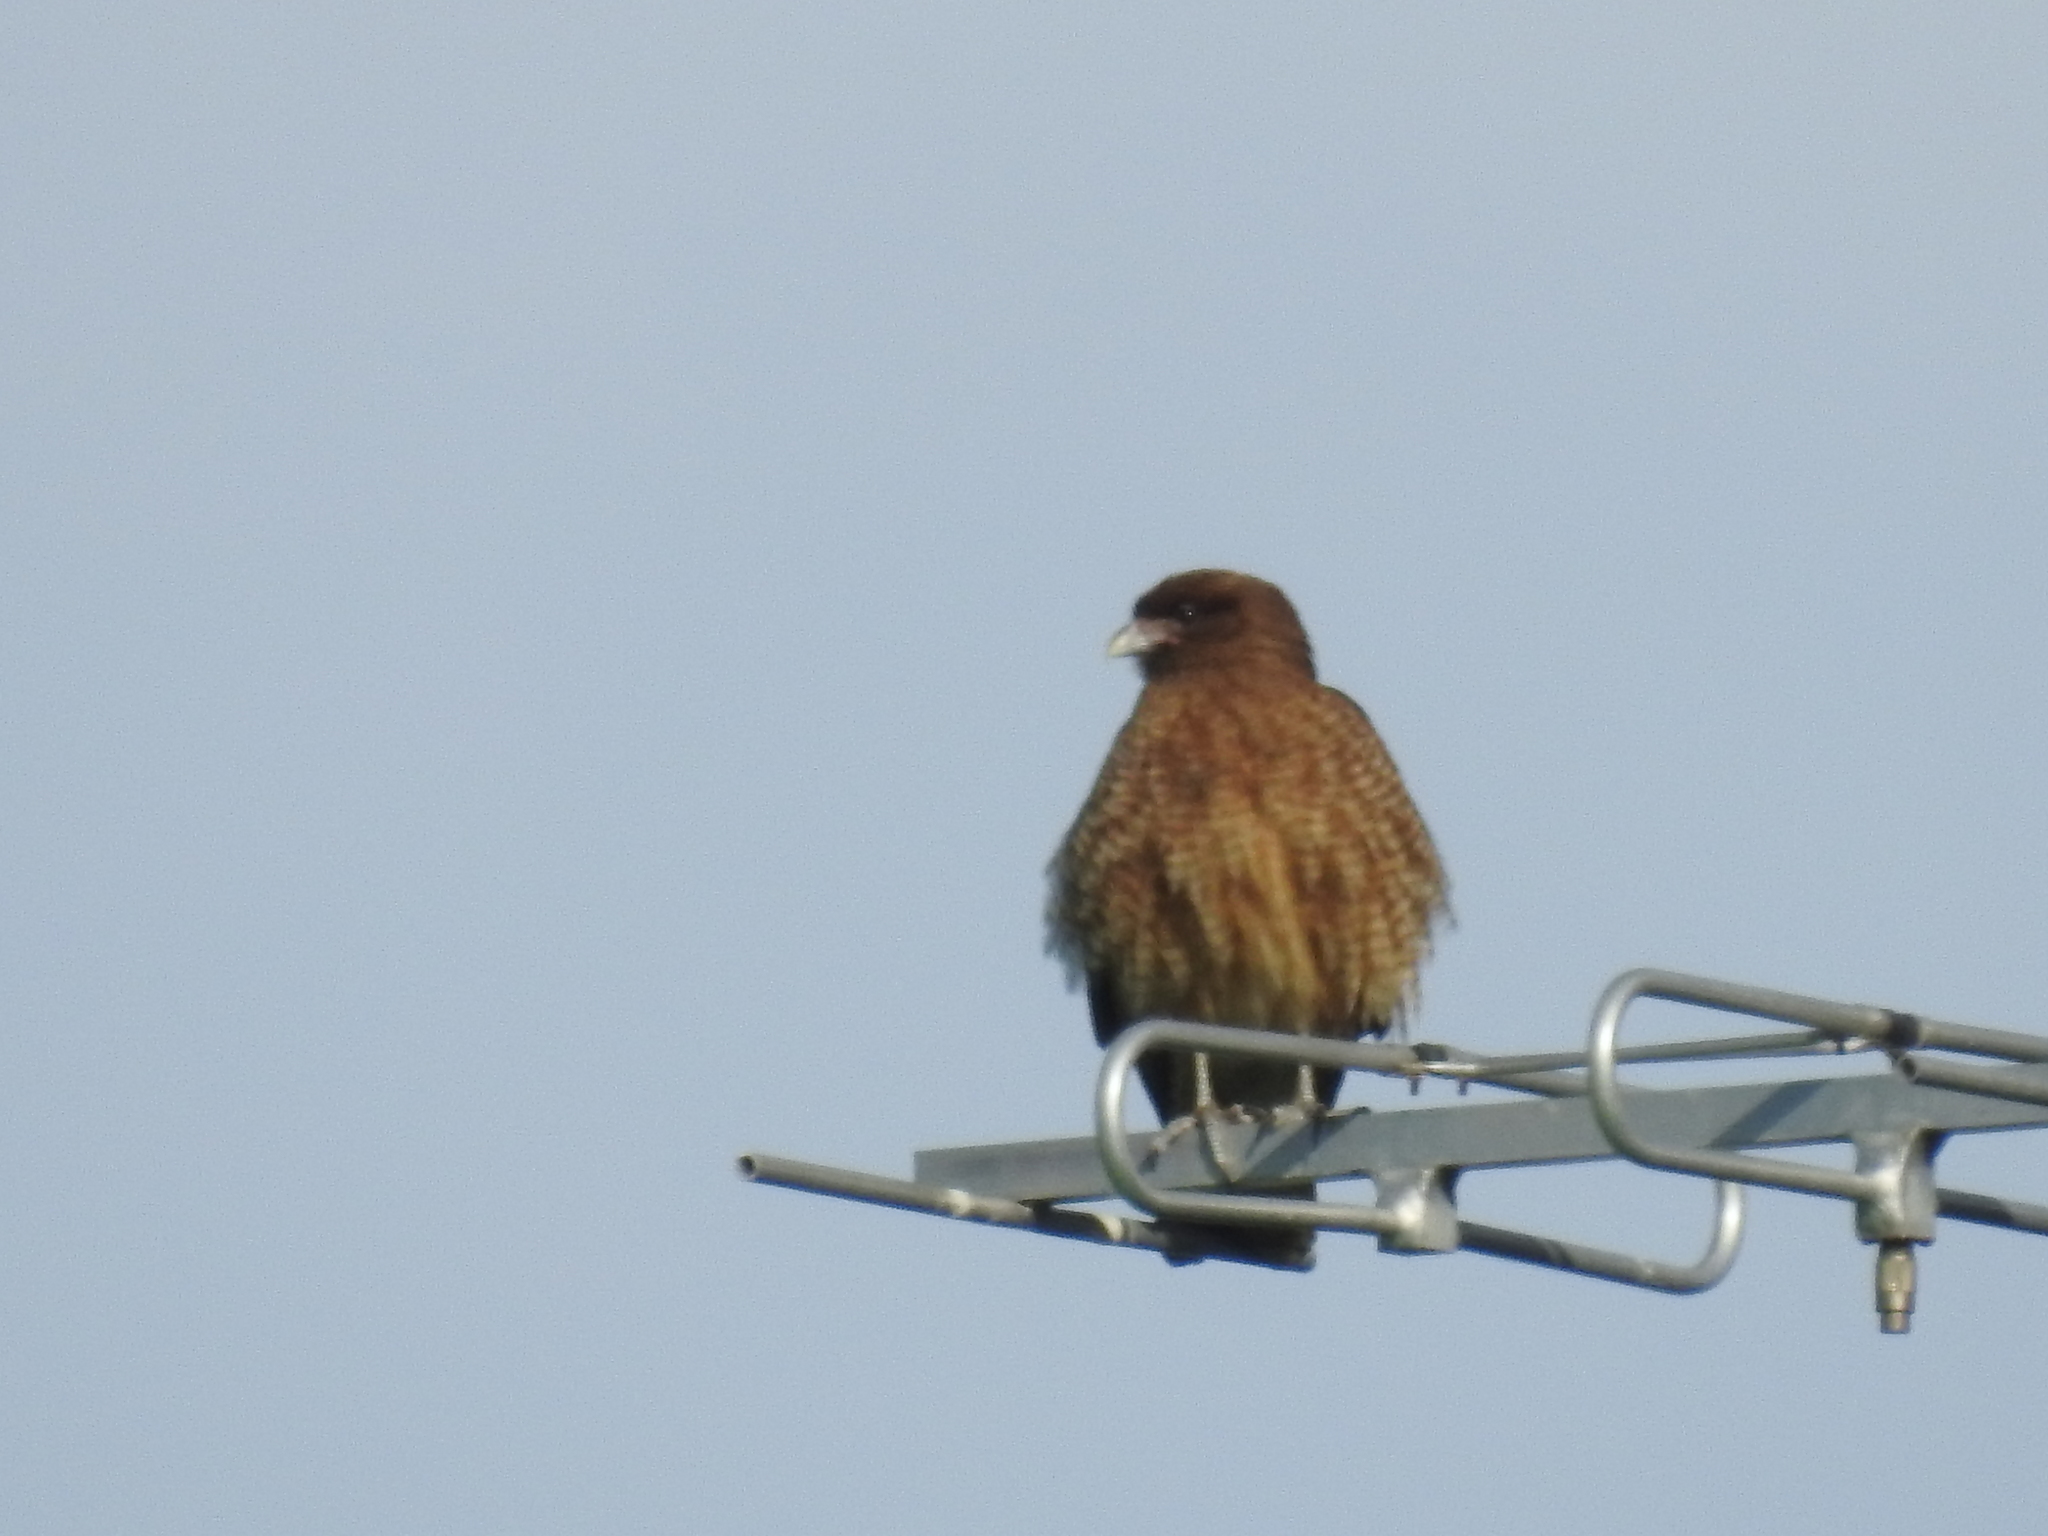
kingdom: Animalia
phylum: Chordata
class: Aves
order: Falconiformes
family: Falconidae
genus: Daptrius
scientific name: Daptrius
